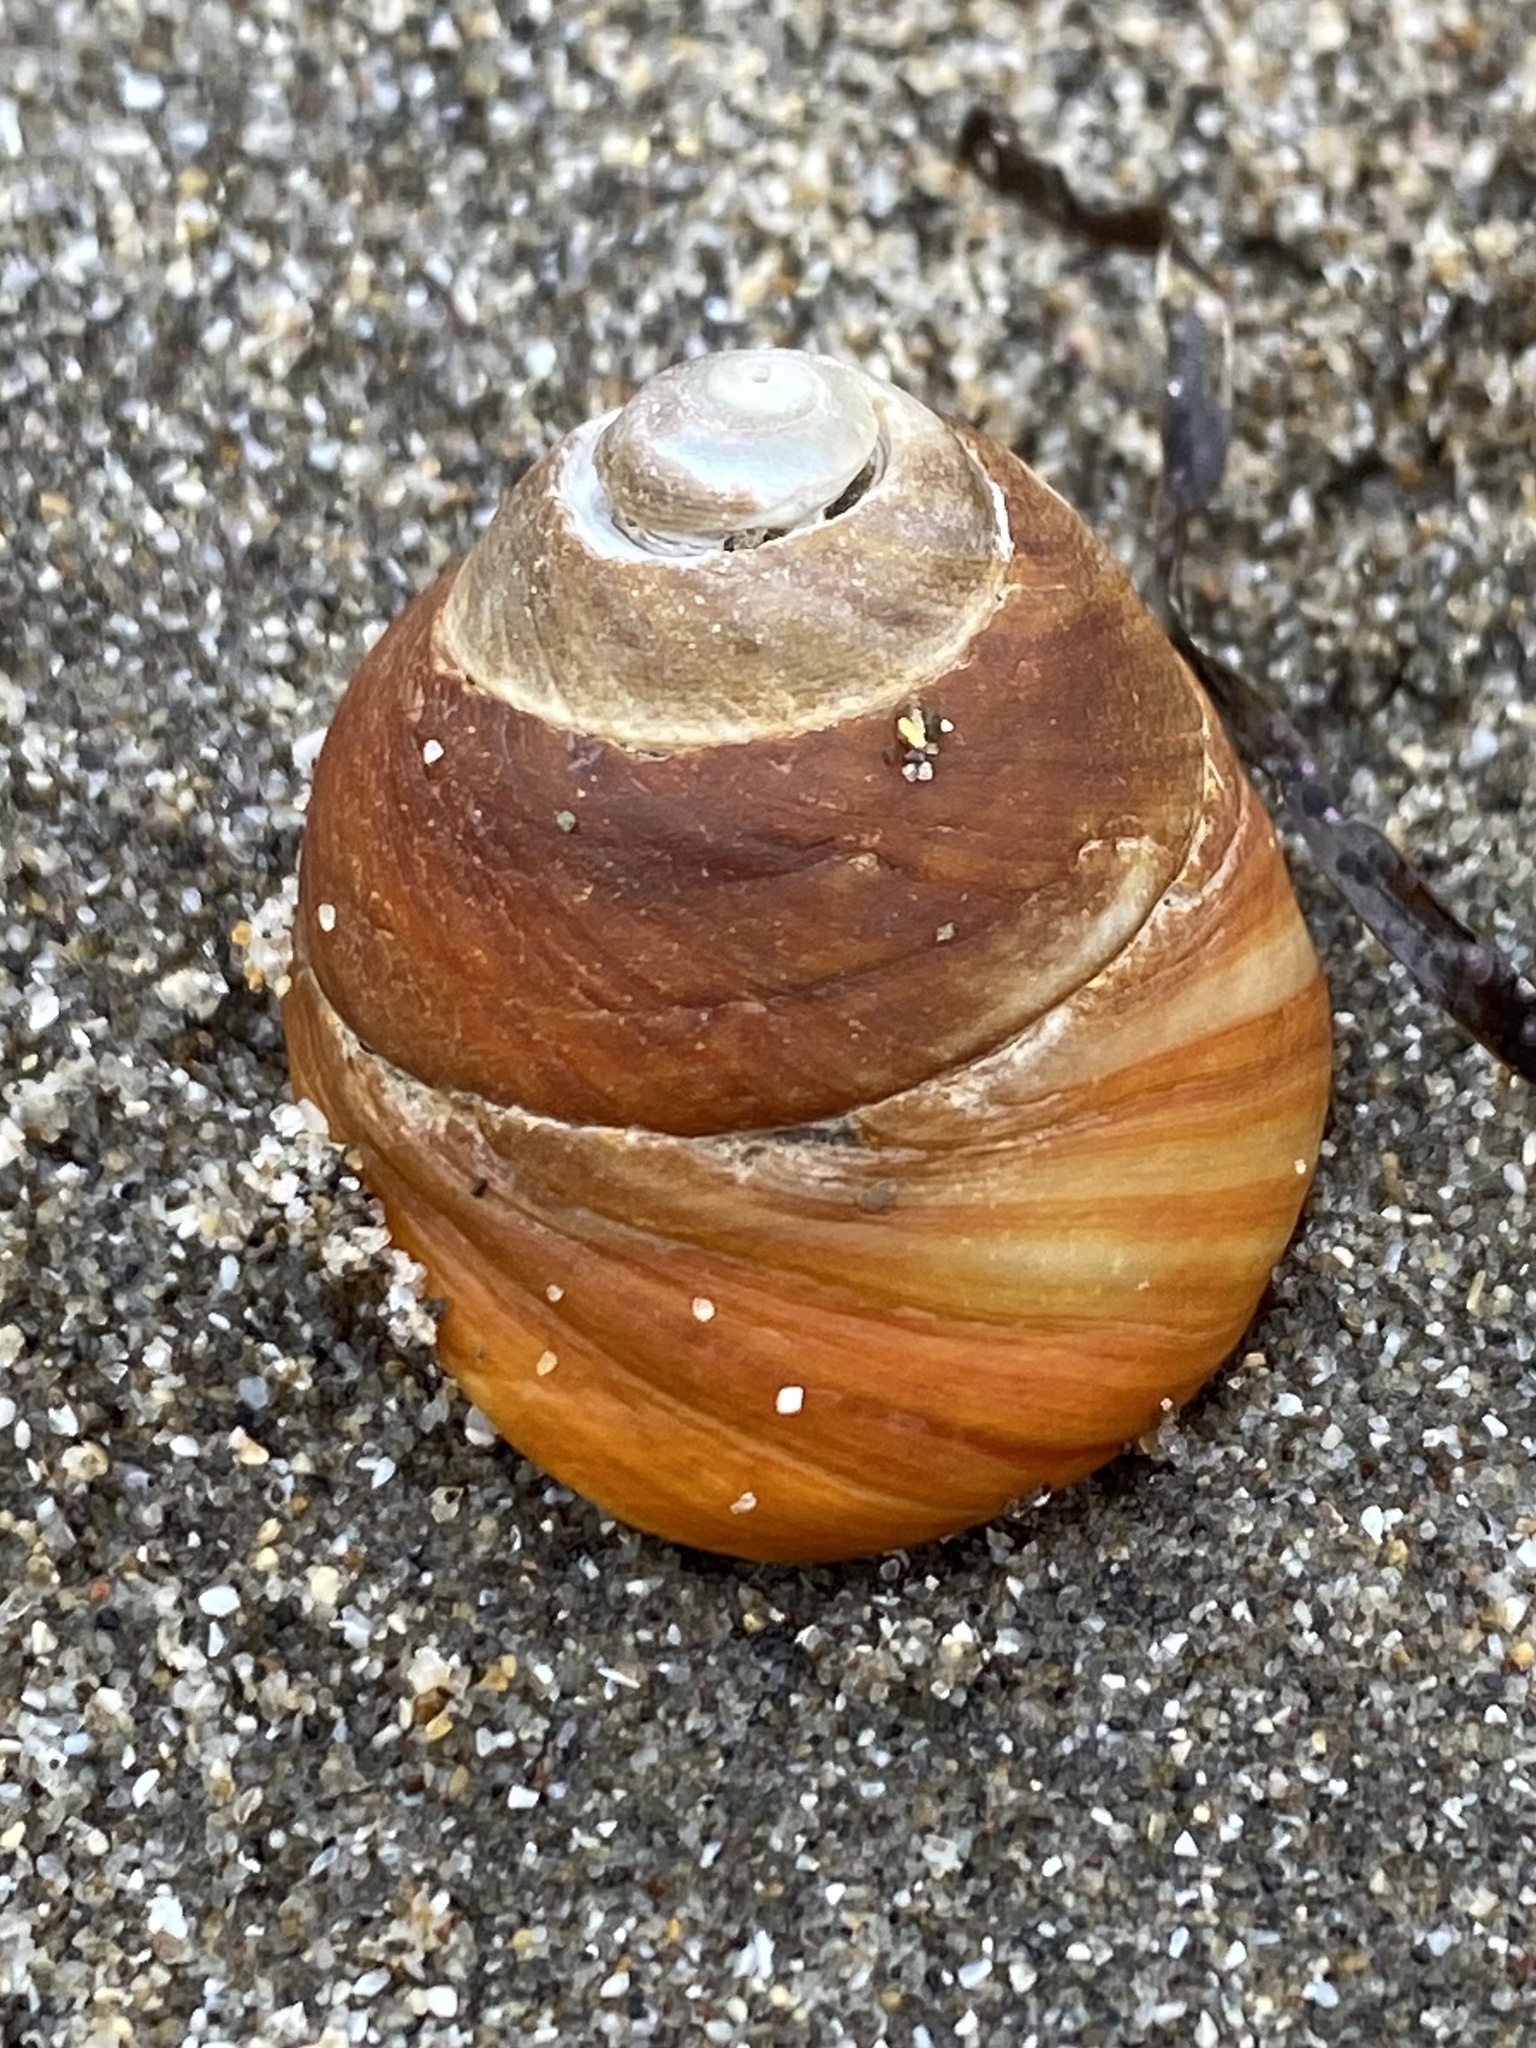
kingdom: Animalia
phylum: Mollusca
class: Gastropoda
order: Trochida
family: Tegulidae
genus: Tegula
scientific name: Tegula brunnea
